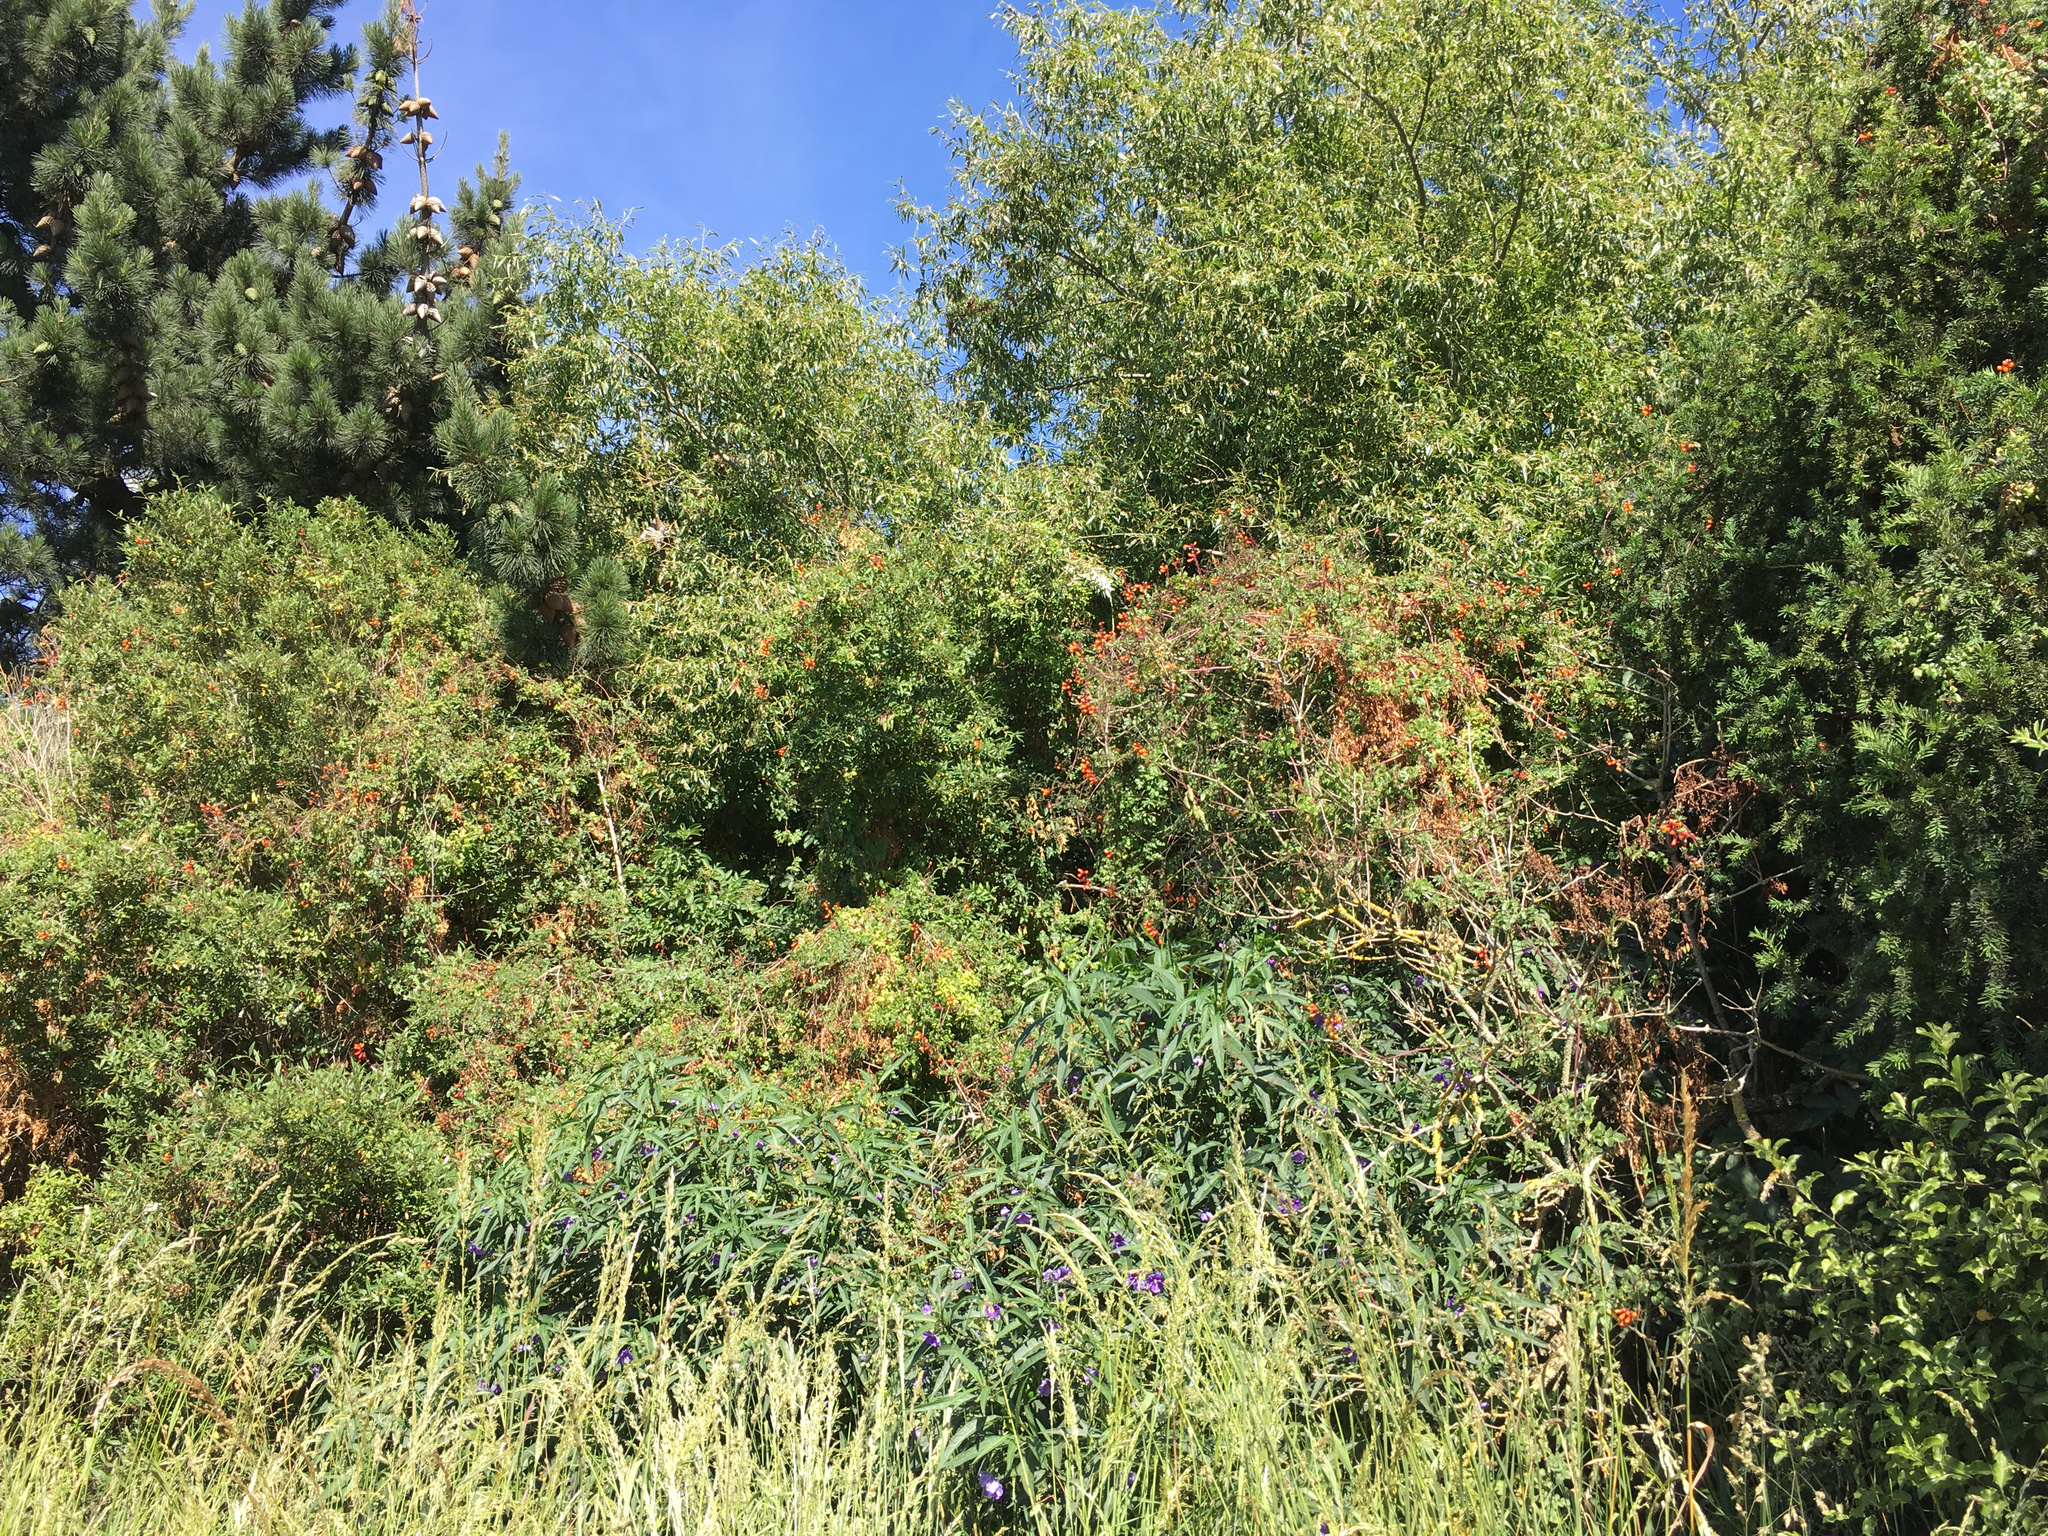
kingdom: Plantae
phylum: Tracheophyta
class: Magnoliopsida
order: Lamiales
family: Bignoniaceae
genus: Eccremocarpus
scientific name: Eccremocarpus scaber
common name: Chilean glory-flower
